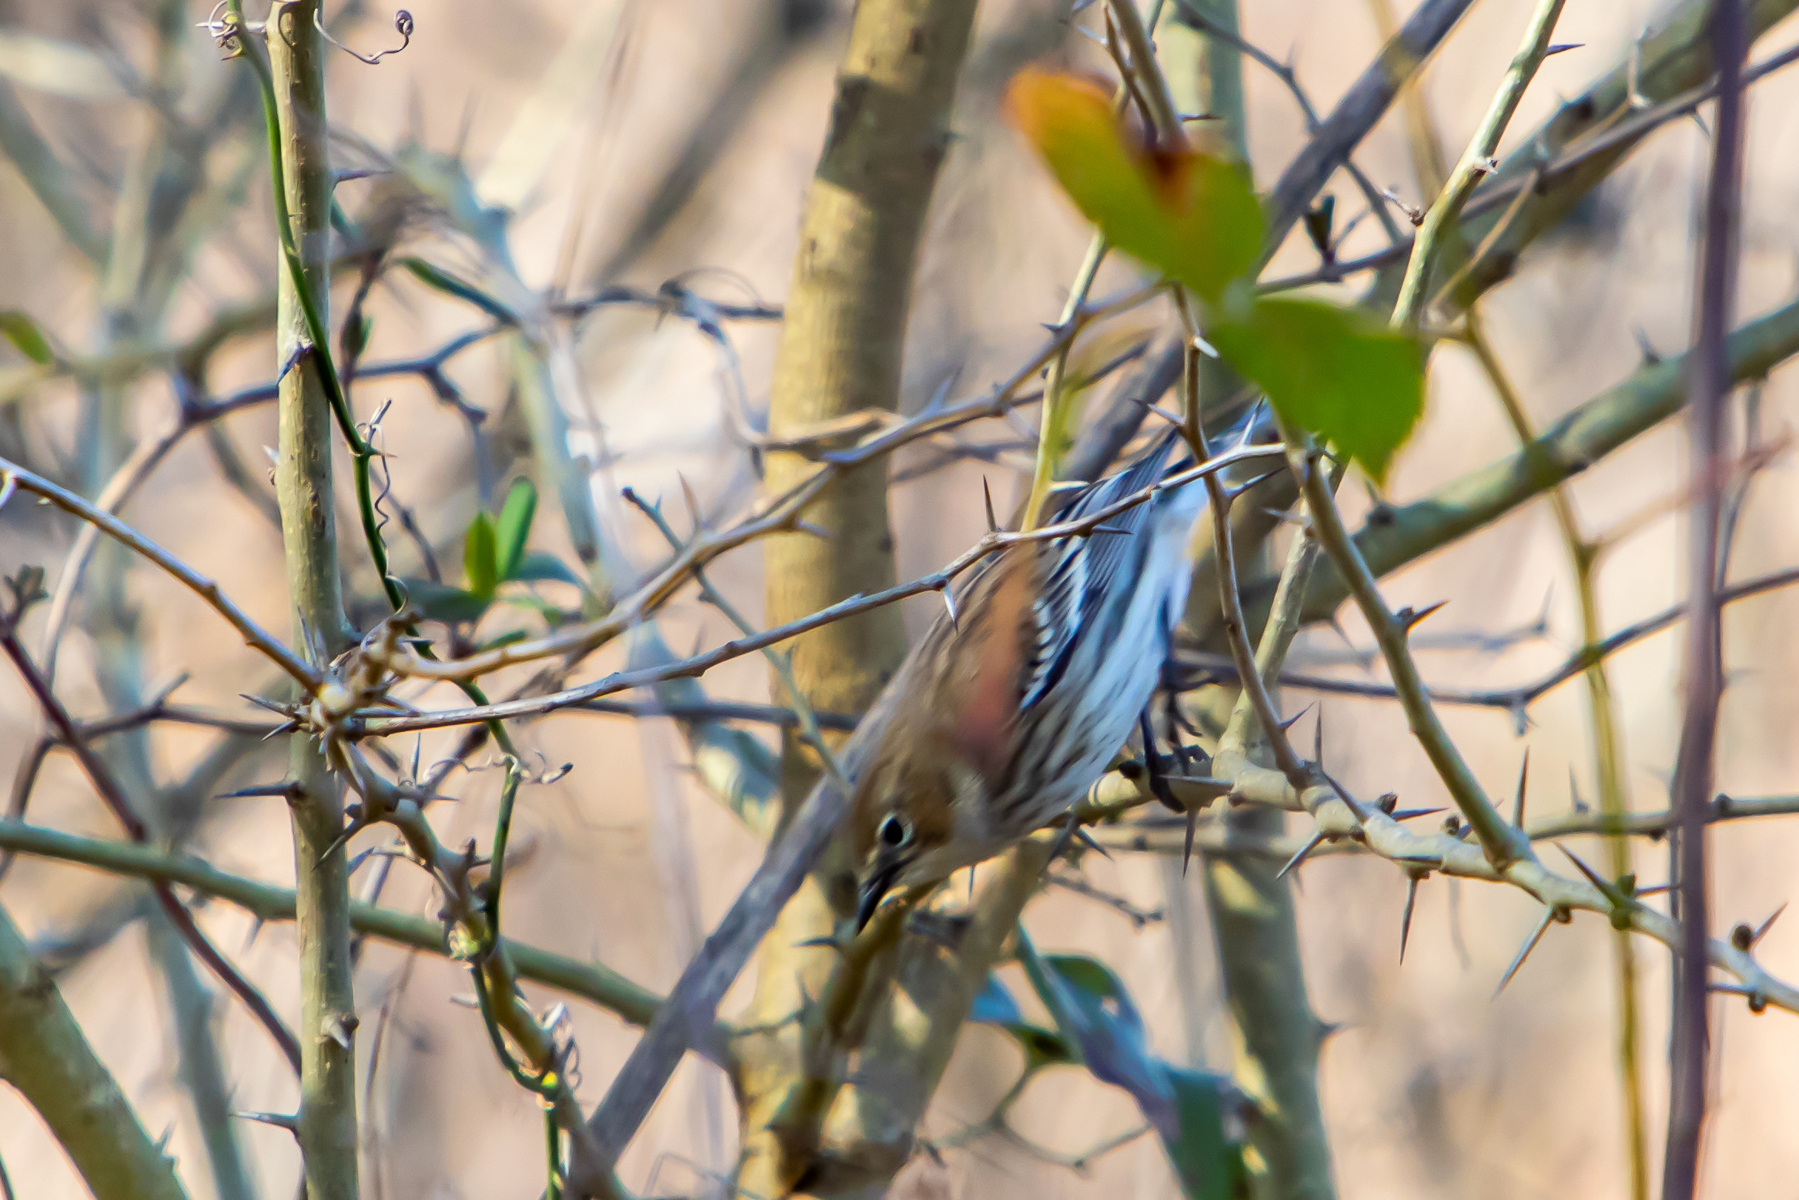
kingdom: Animalia
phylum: Chordata
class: Aves
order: Passeriformes
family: Parulidae
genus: Setophaga
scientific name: Setophaga coronata
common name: Myrtle warbler
